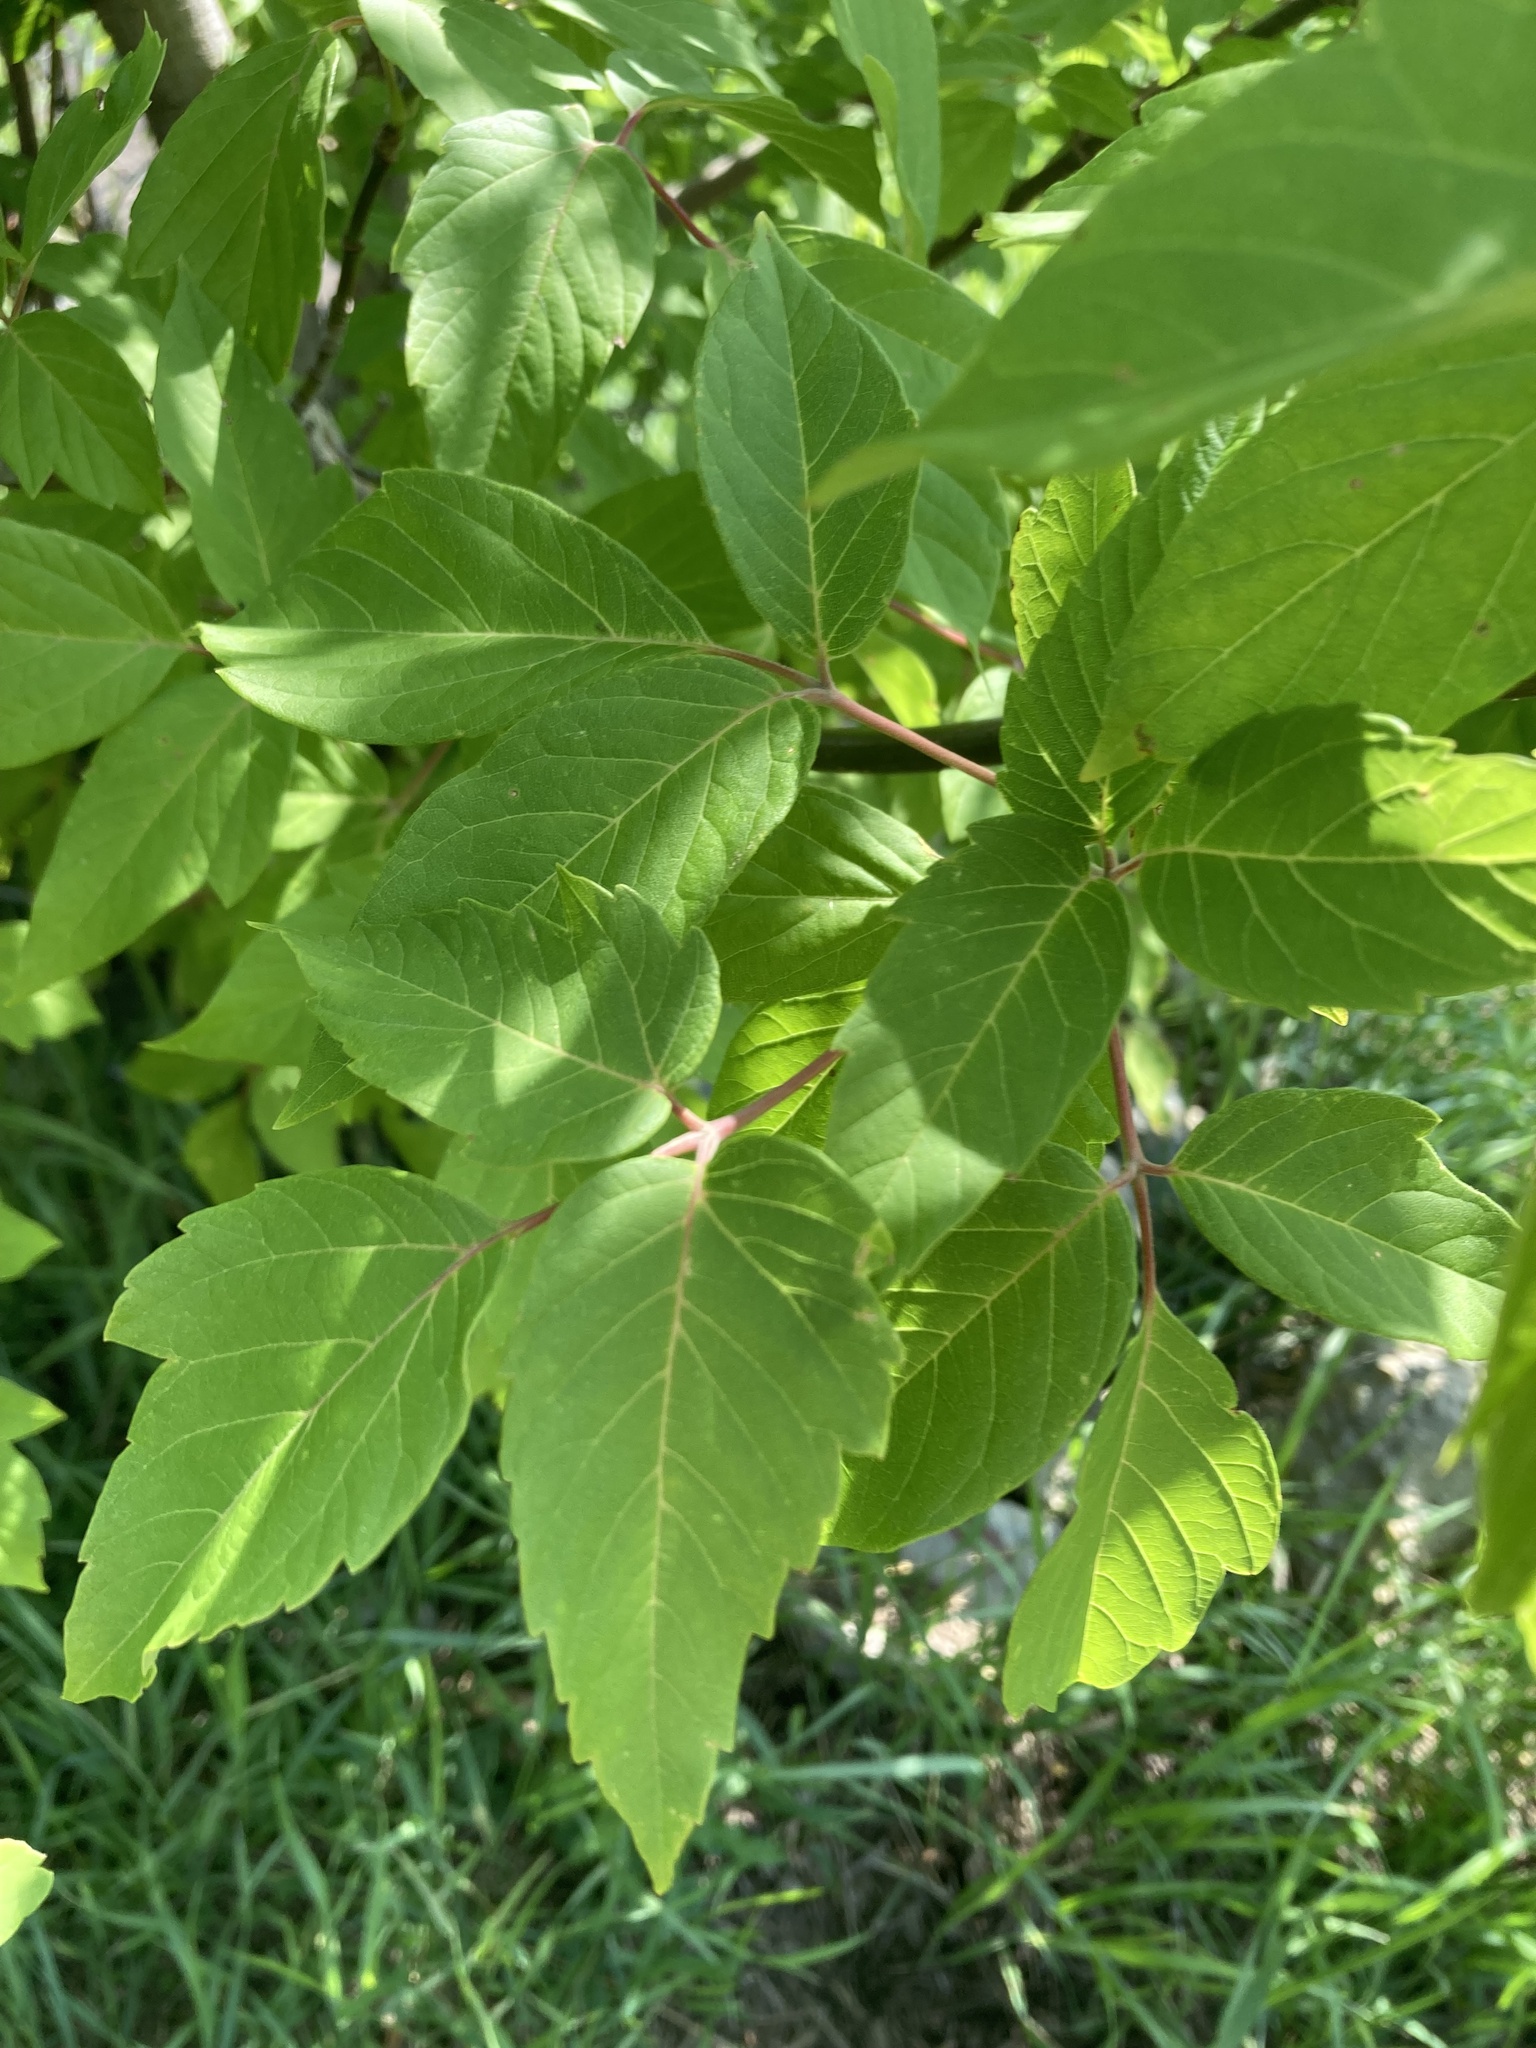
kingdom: Plantae
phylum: Tracheophyta
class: Magnoliopsida
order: Sapindales
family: Sapindaceae
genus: Acer
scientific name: Acer negundo
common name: Ashleaf maple
